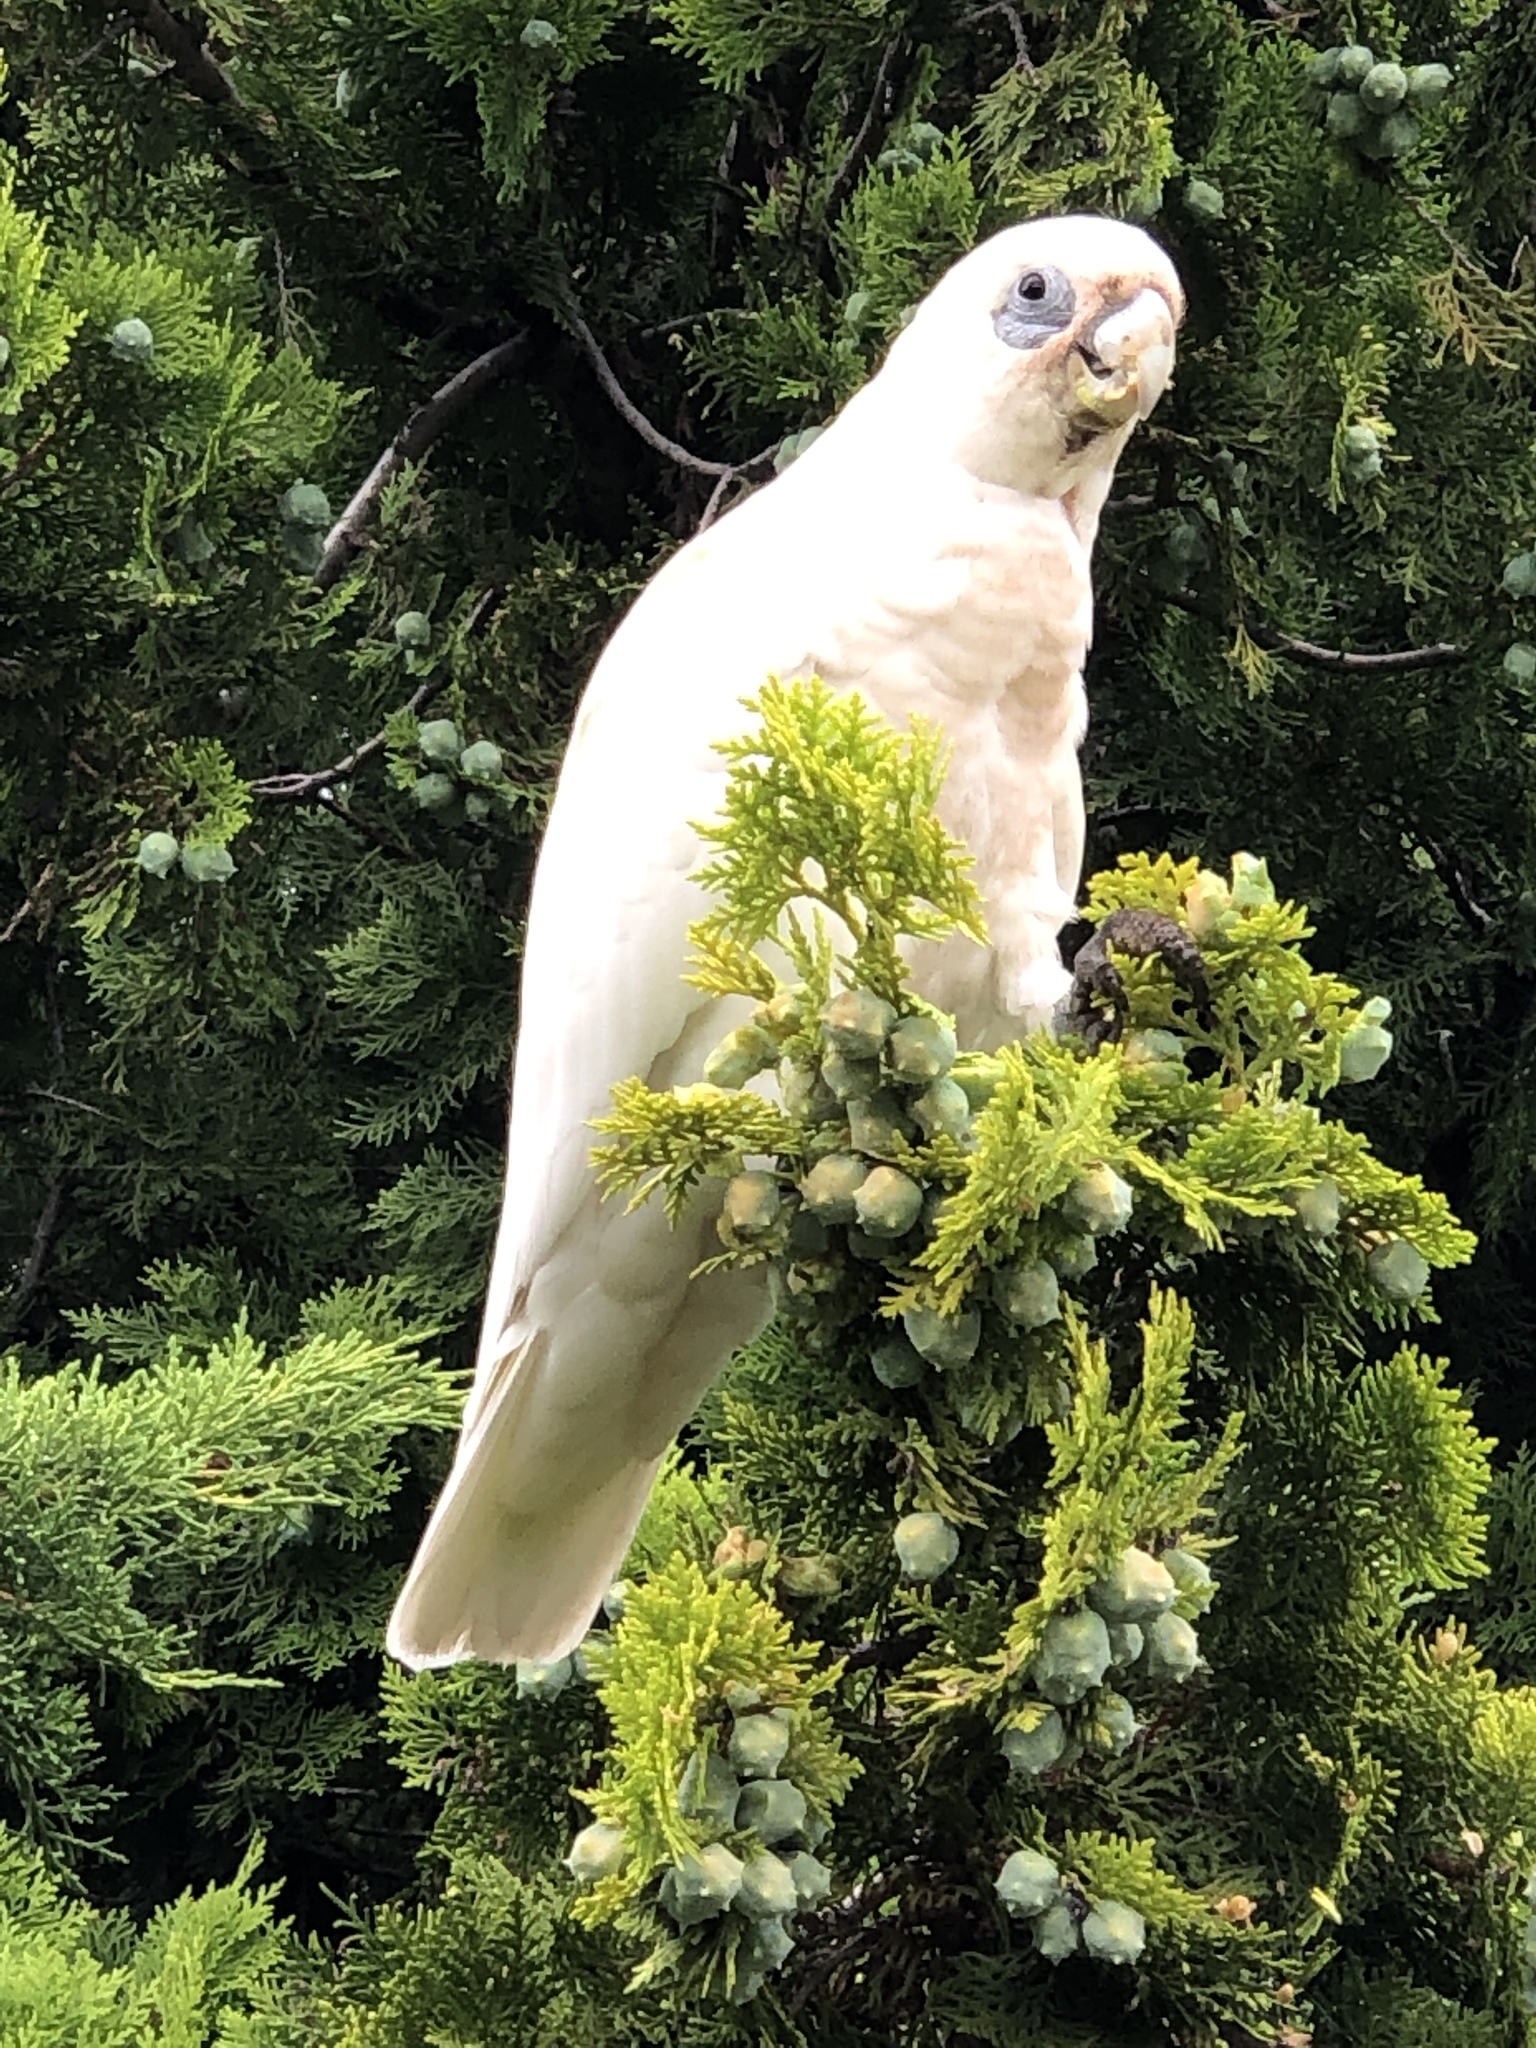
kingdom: Animalia
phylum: Chordata
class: Aves
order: Psittaciformes
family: Psittacidae
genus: Cacatua
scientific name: Cacatua sanguinea
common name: Little corella
